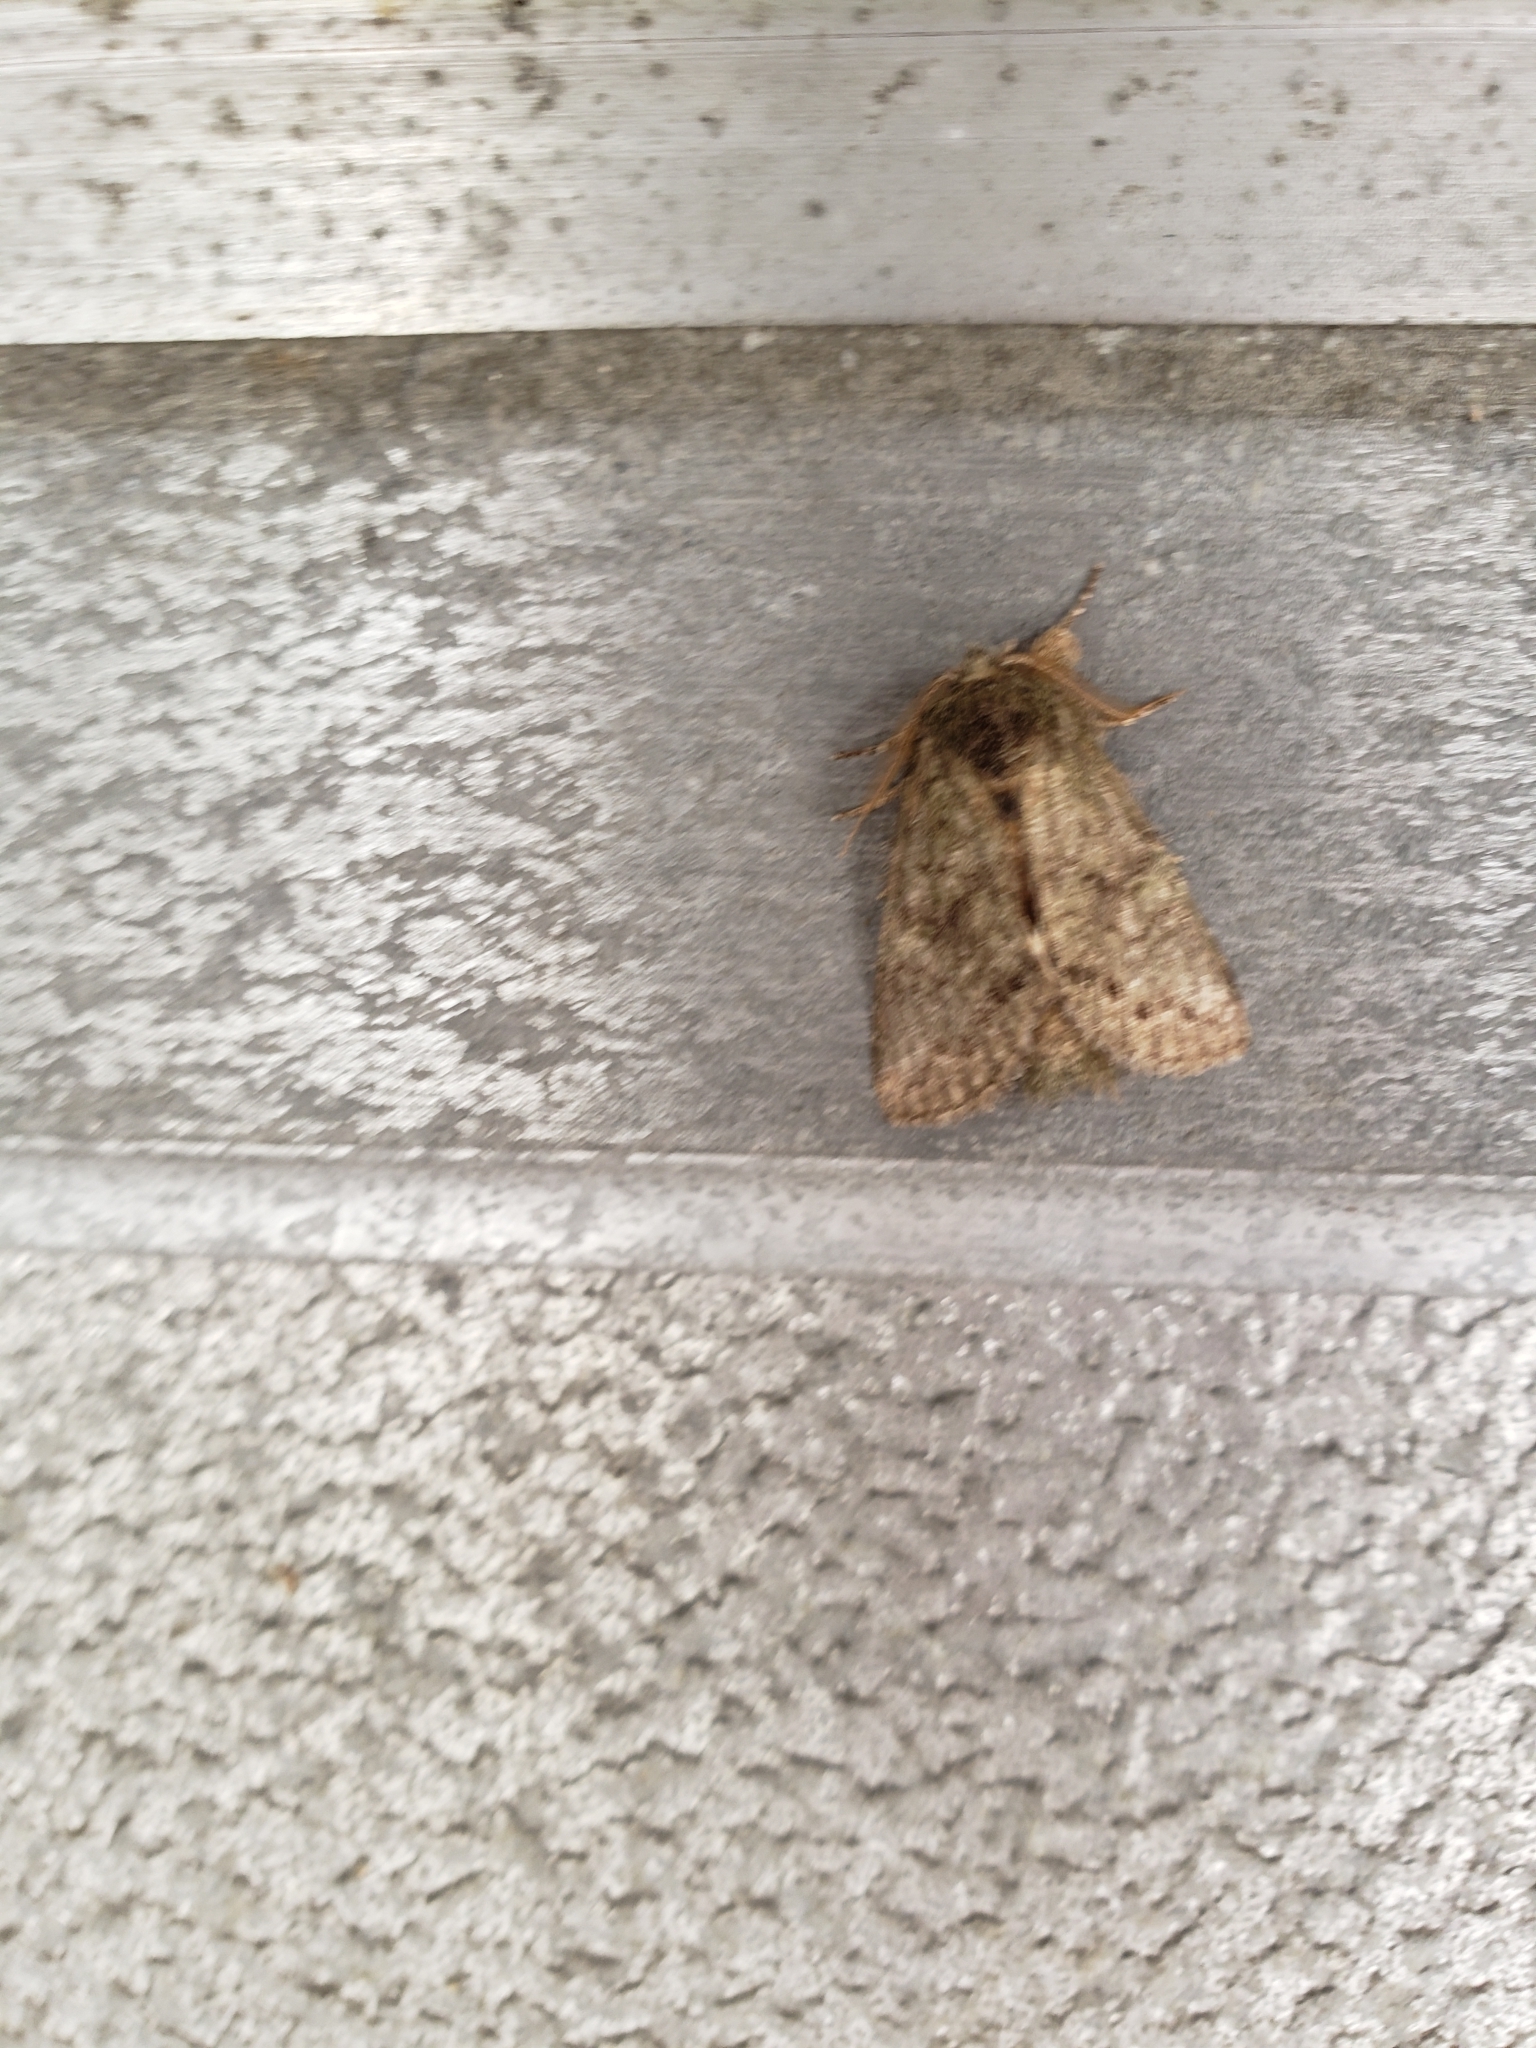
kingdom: Animalia
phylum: Arthropoda
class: Insecta
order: Lepidoptera
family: Notodontidae
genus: Disphragis
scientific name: Disphragis Cecrita guttivitta
